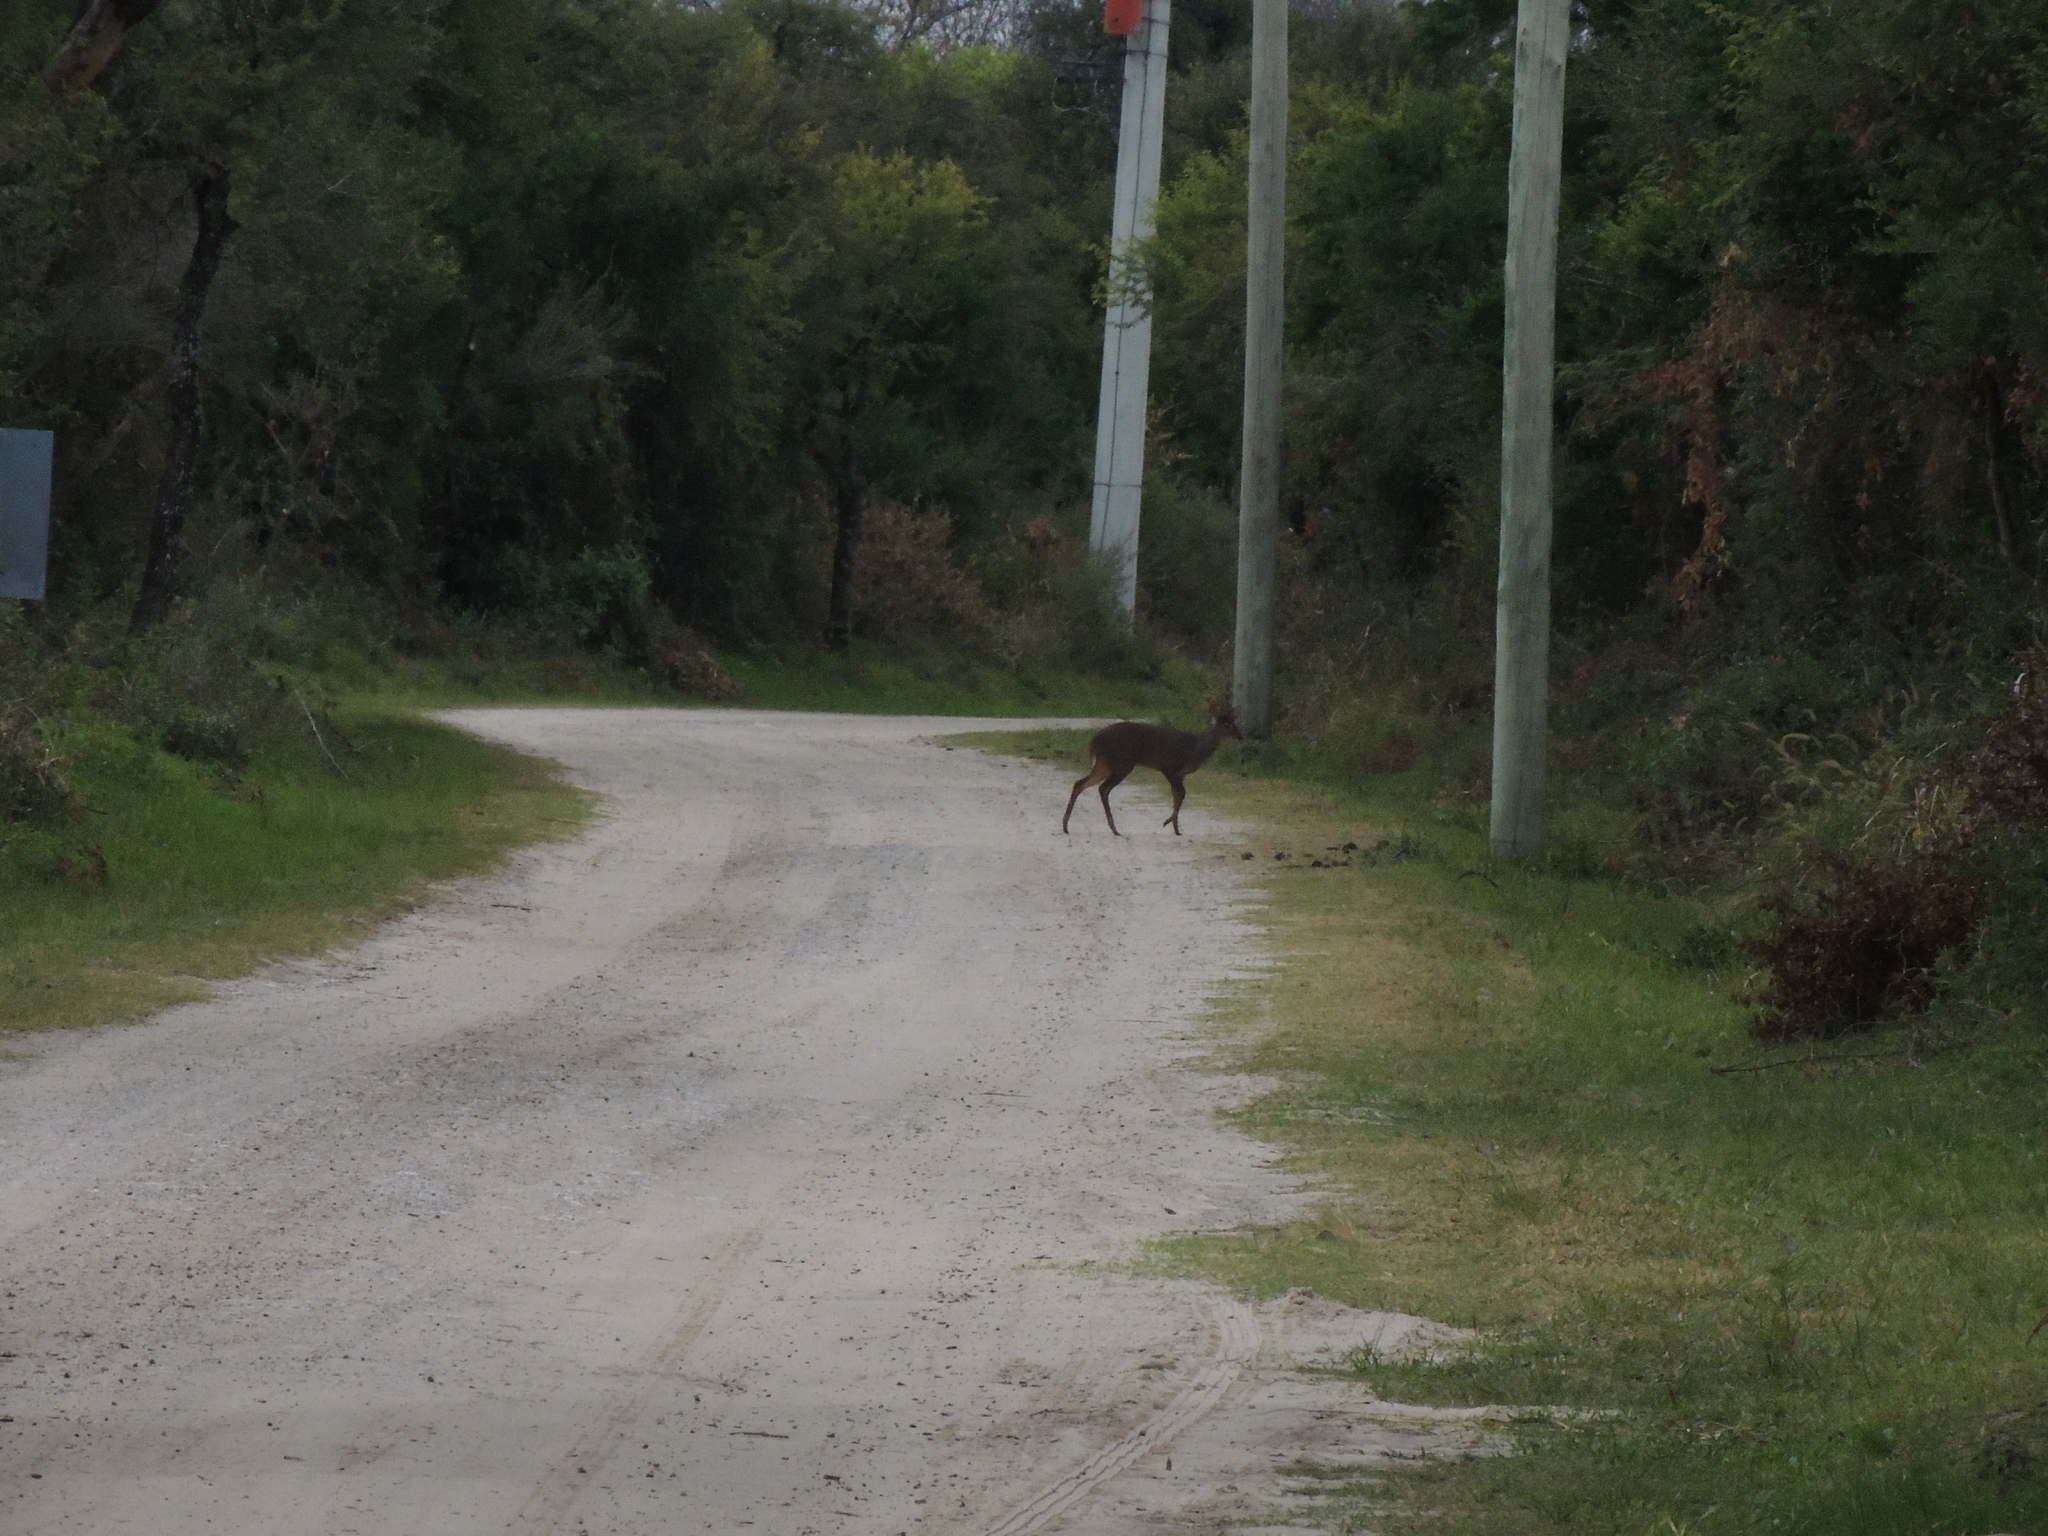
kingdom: Animalia
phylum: Chordata
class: Mammalia
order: Artiodactyla
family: Cervidae
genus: Mazama
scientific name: Mazama gouazoubira
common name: Gray brocket
